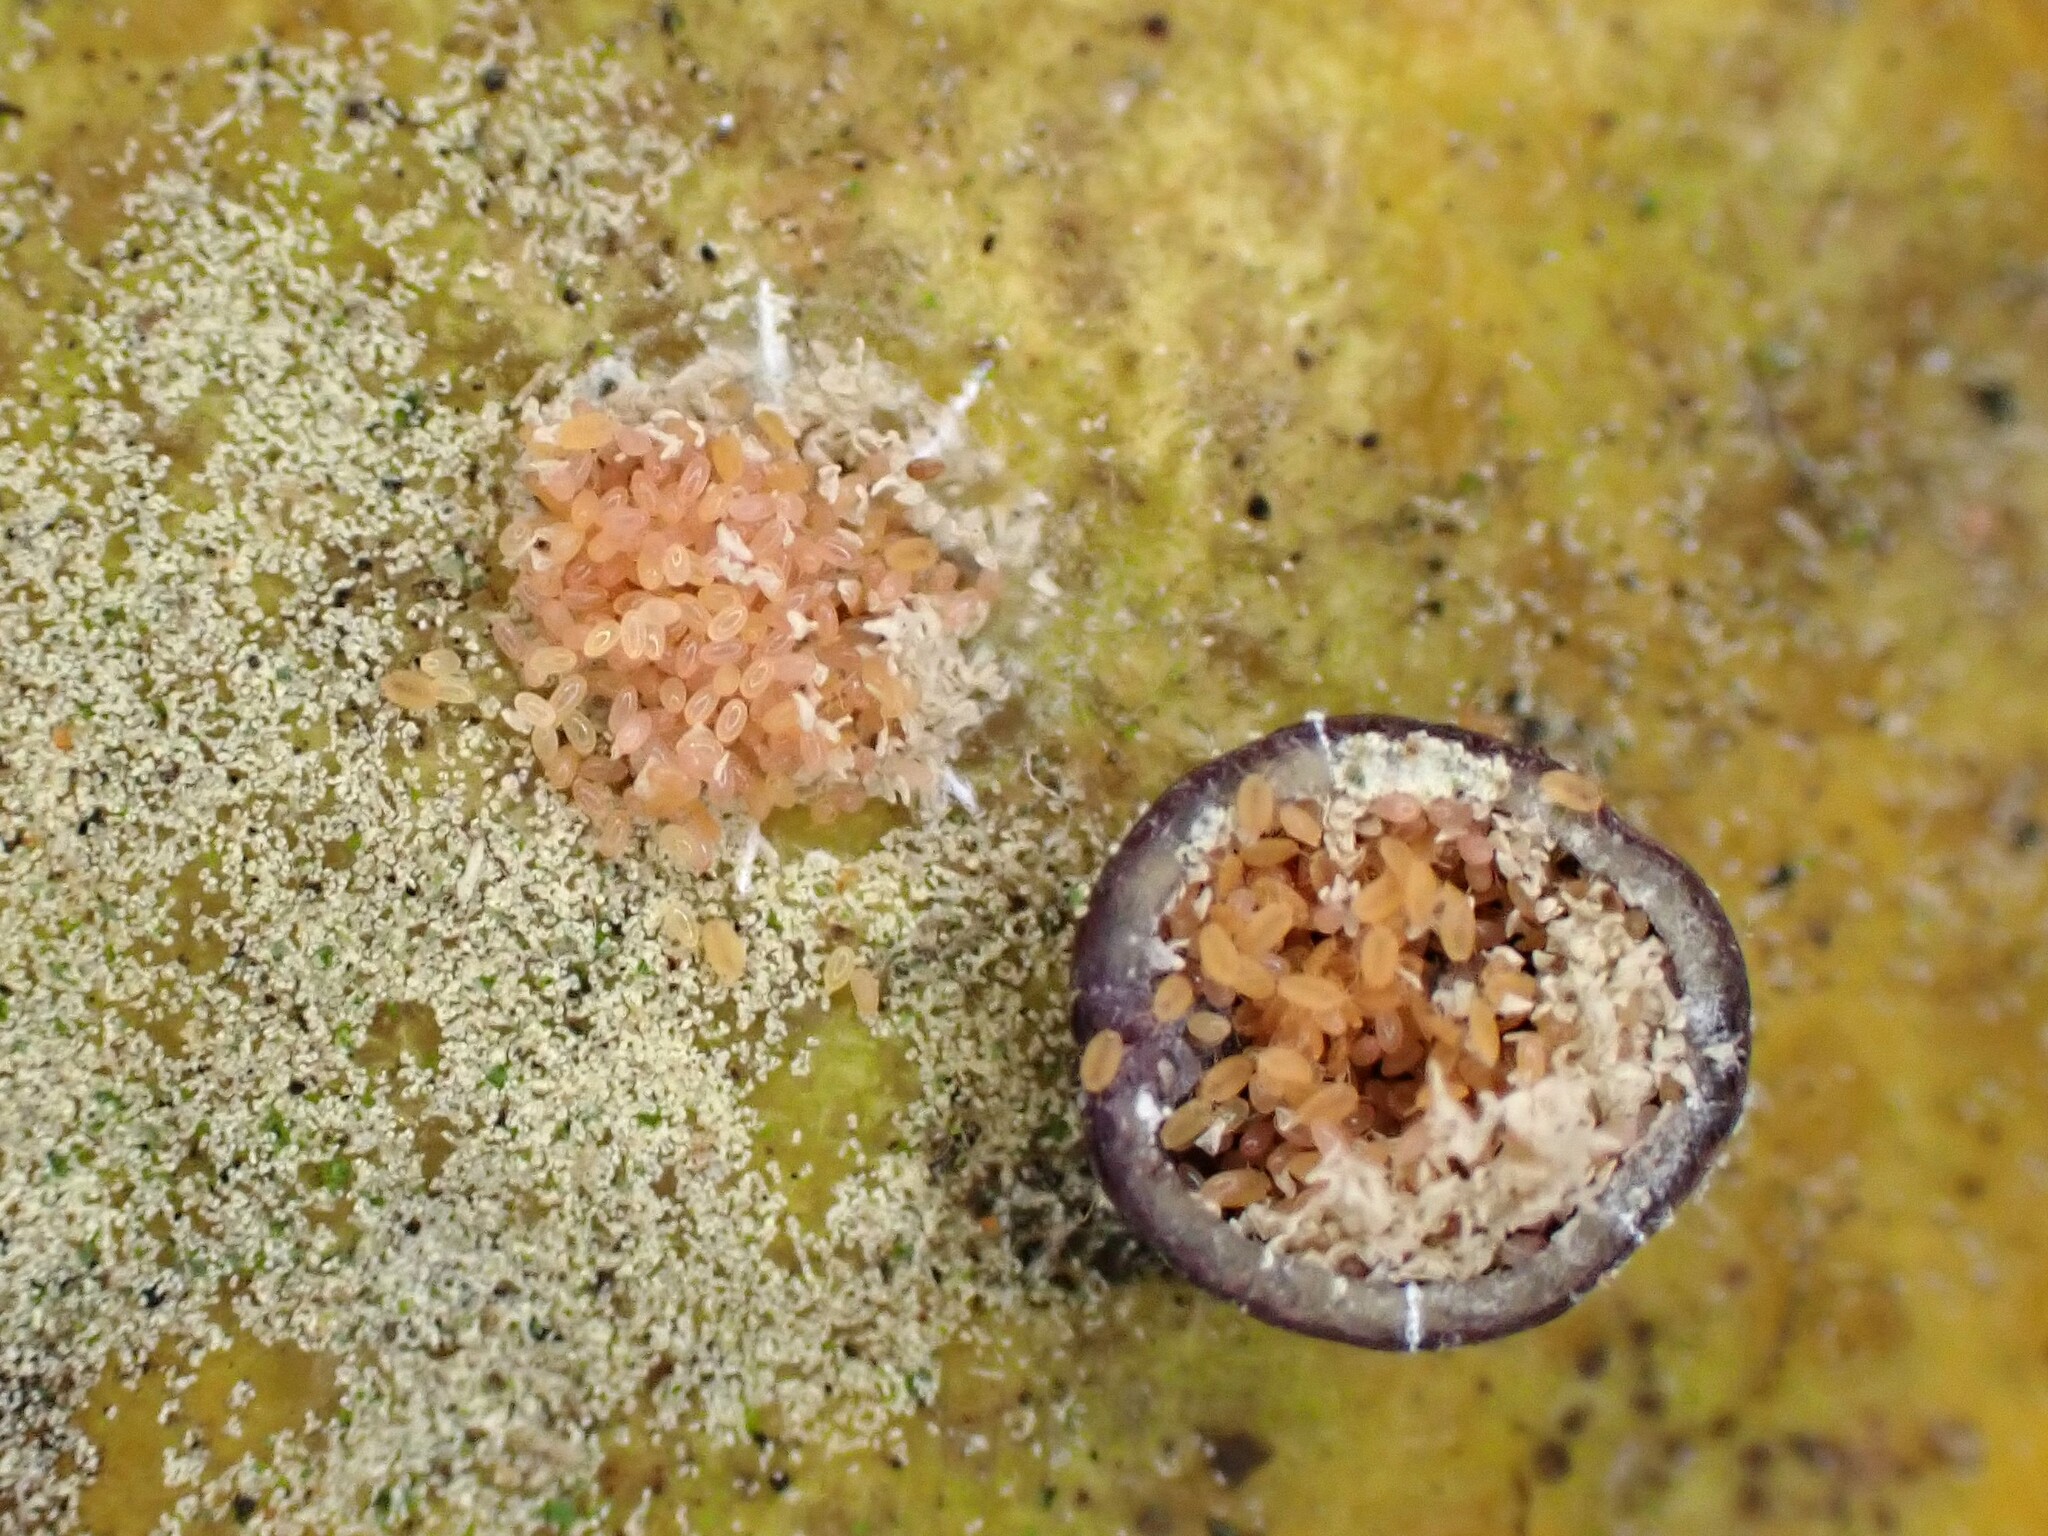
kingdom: Animalia
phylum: Arthropoda
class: Insecta
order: Hemiptera
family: Coccidae
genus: Saissetia
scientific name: Saissetia oleae
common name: Black scale
